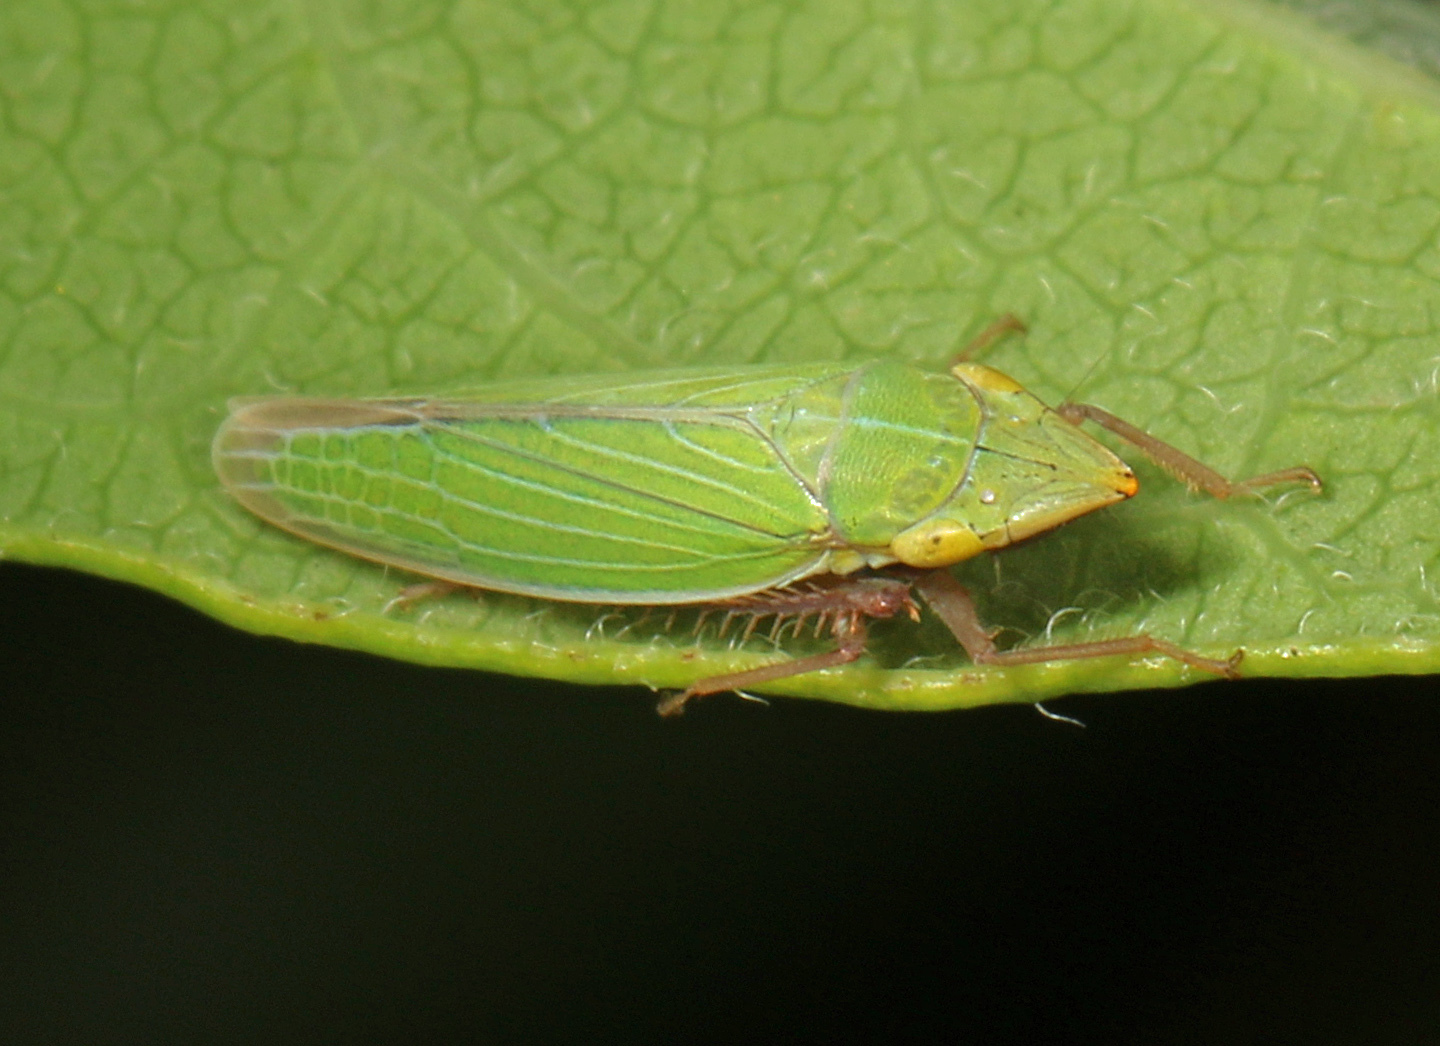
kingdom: Animalia
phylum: Arthropoda
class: Insecta
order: Hemiptera
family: Cicadellidae
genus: Draeculacephala
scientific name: Draeculacephala
